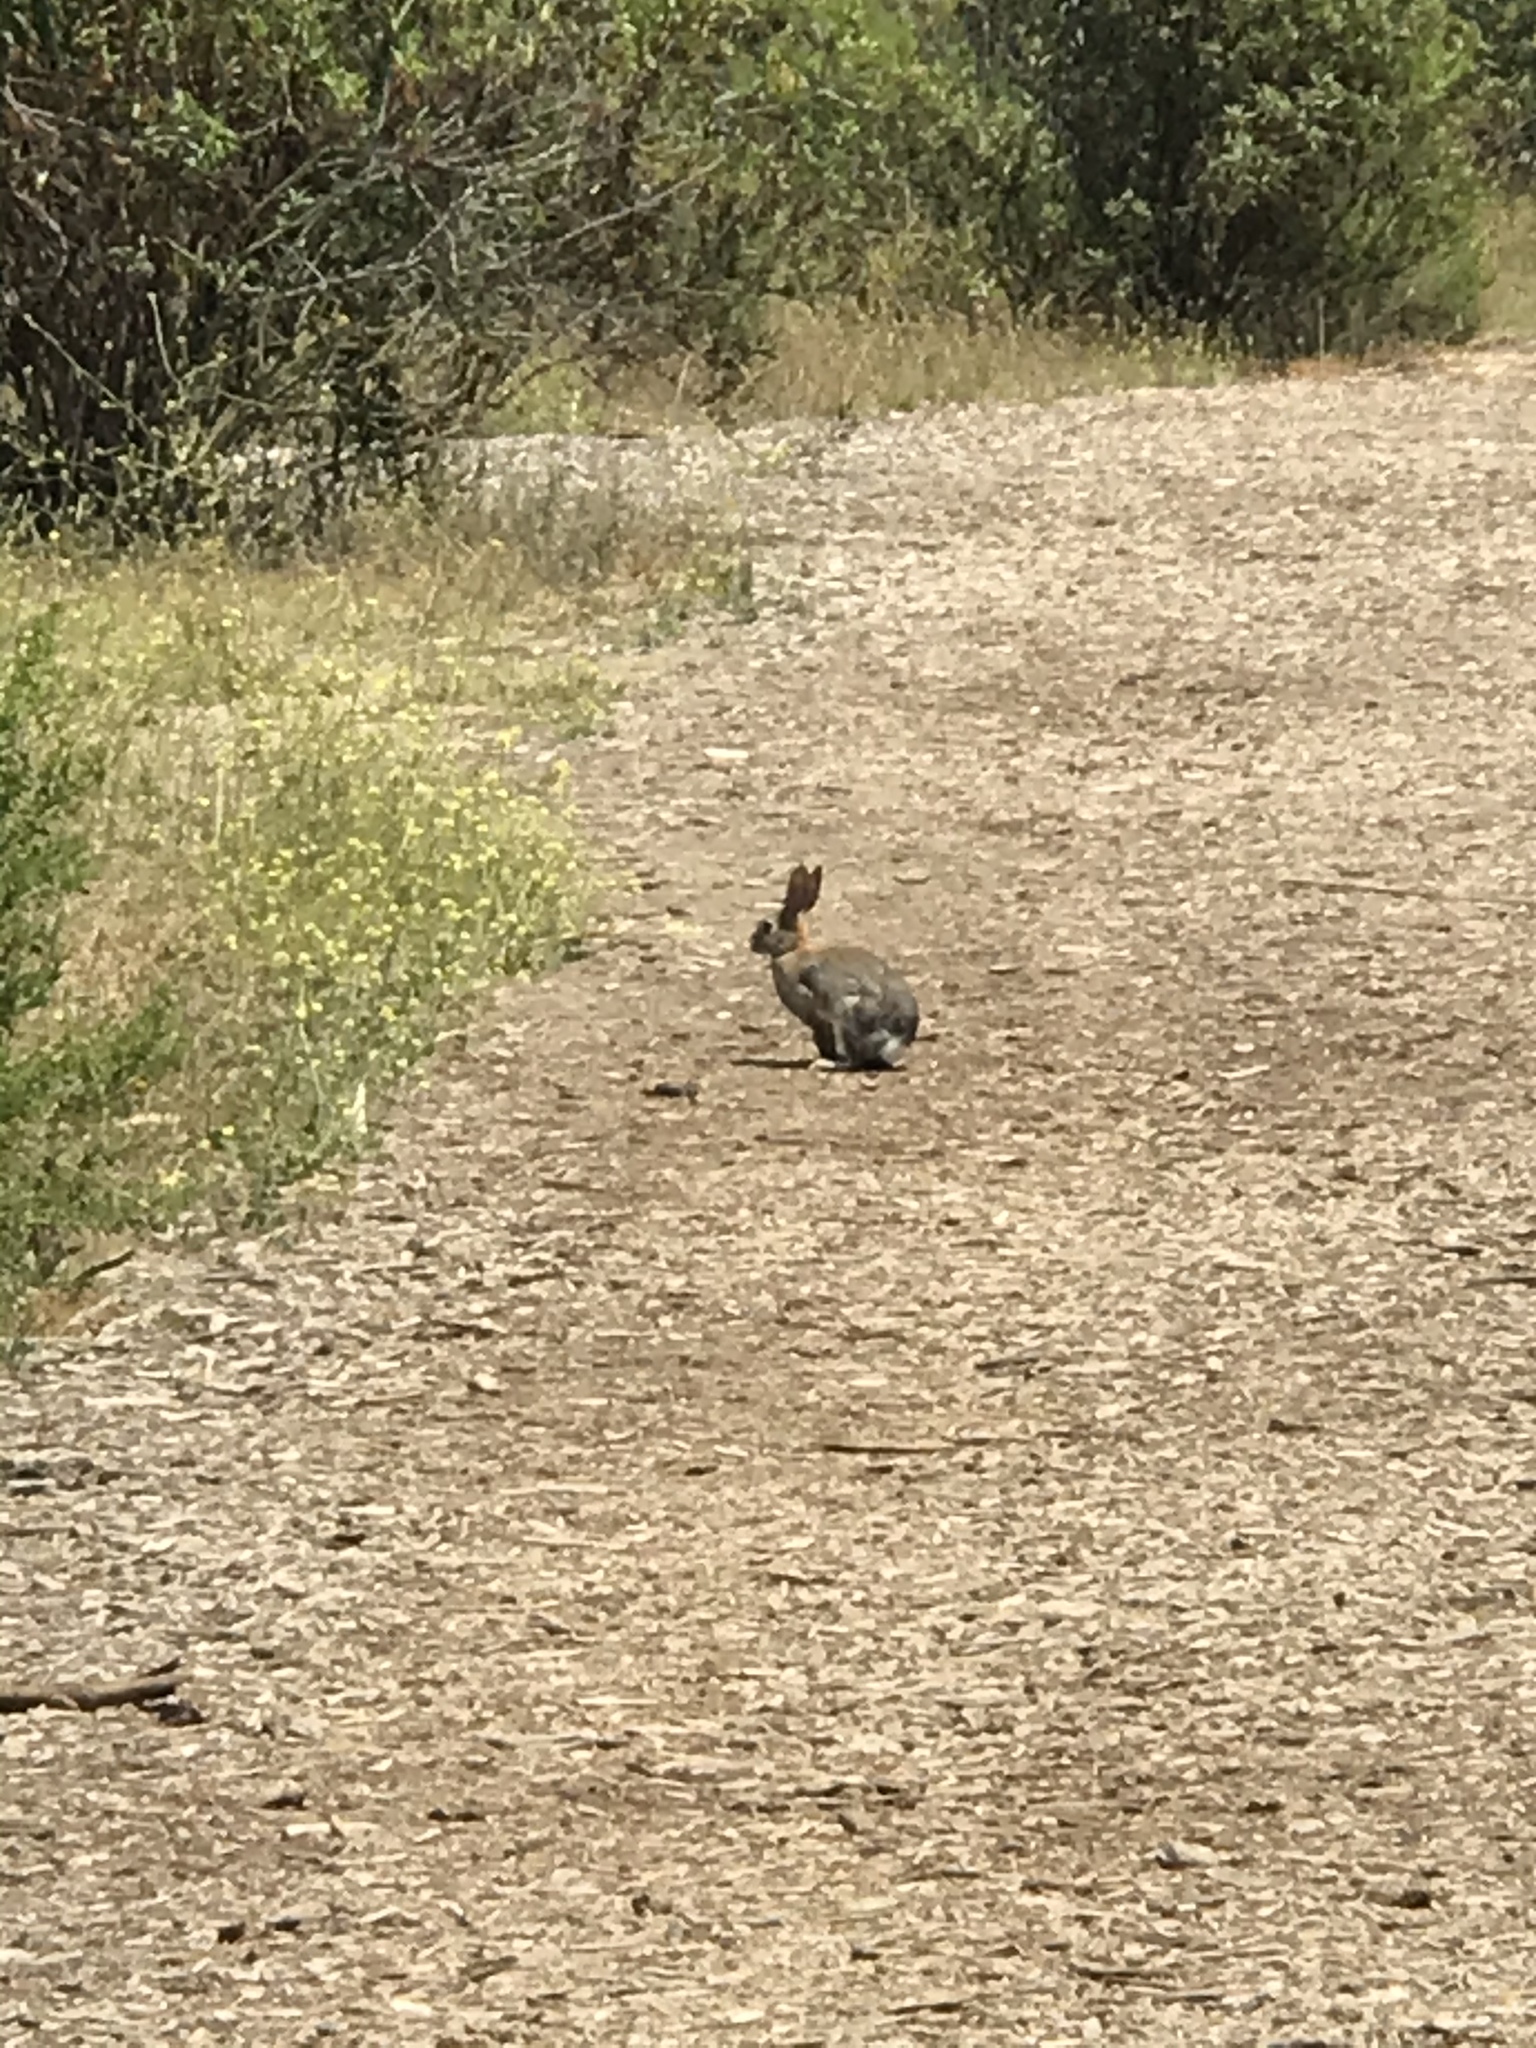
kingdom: Animalia
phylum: Chordata
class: Mammalia
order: Lagomorpha
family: Leporidae
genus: Sylvilagus
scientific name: Sylvilagus audubonii
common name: Desert cottontail
